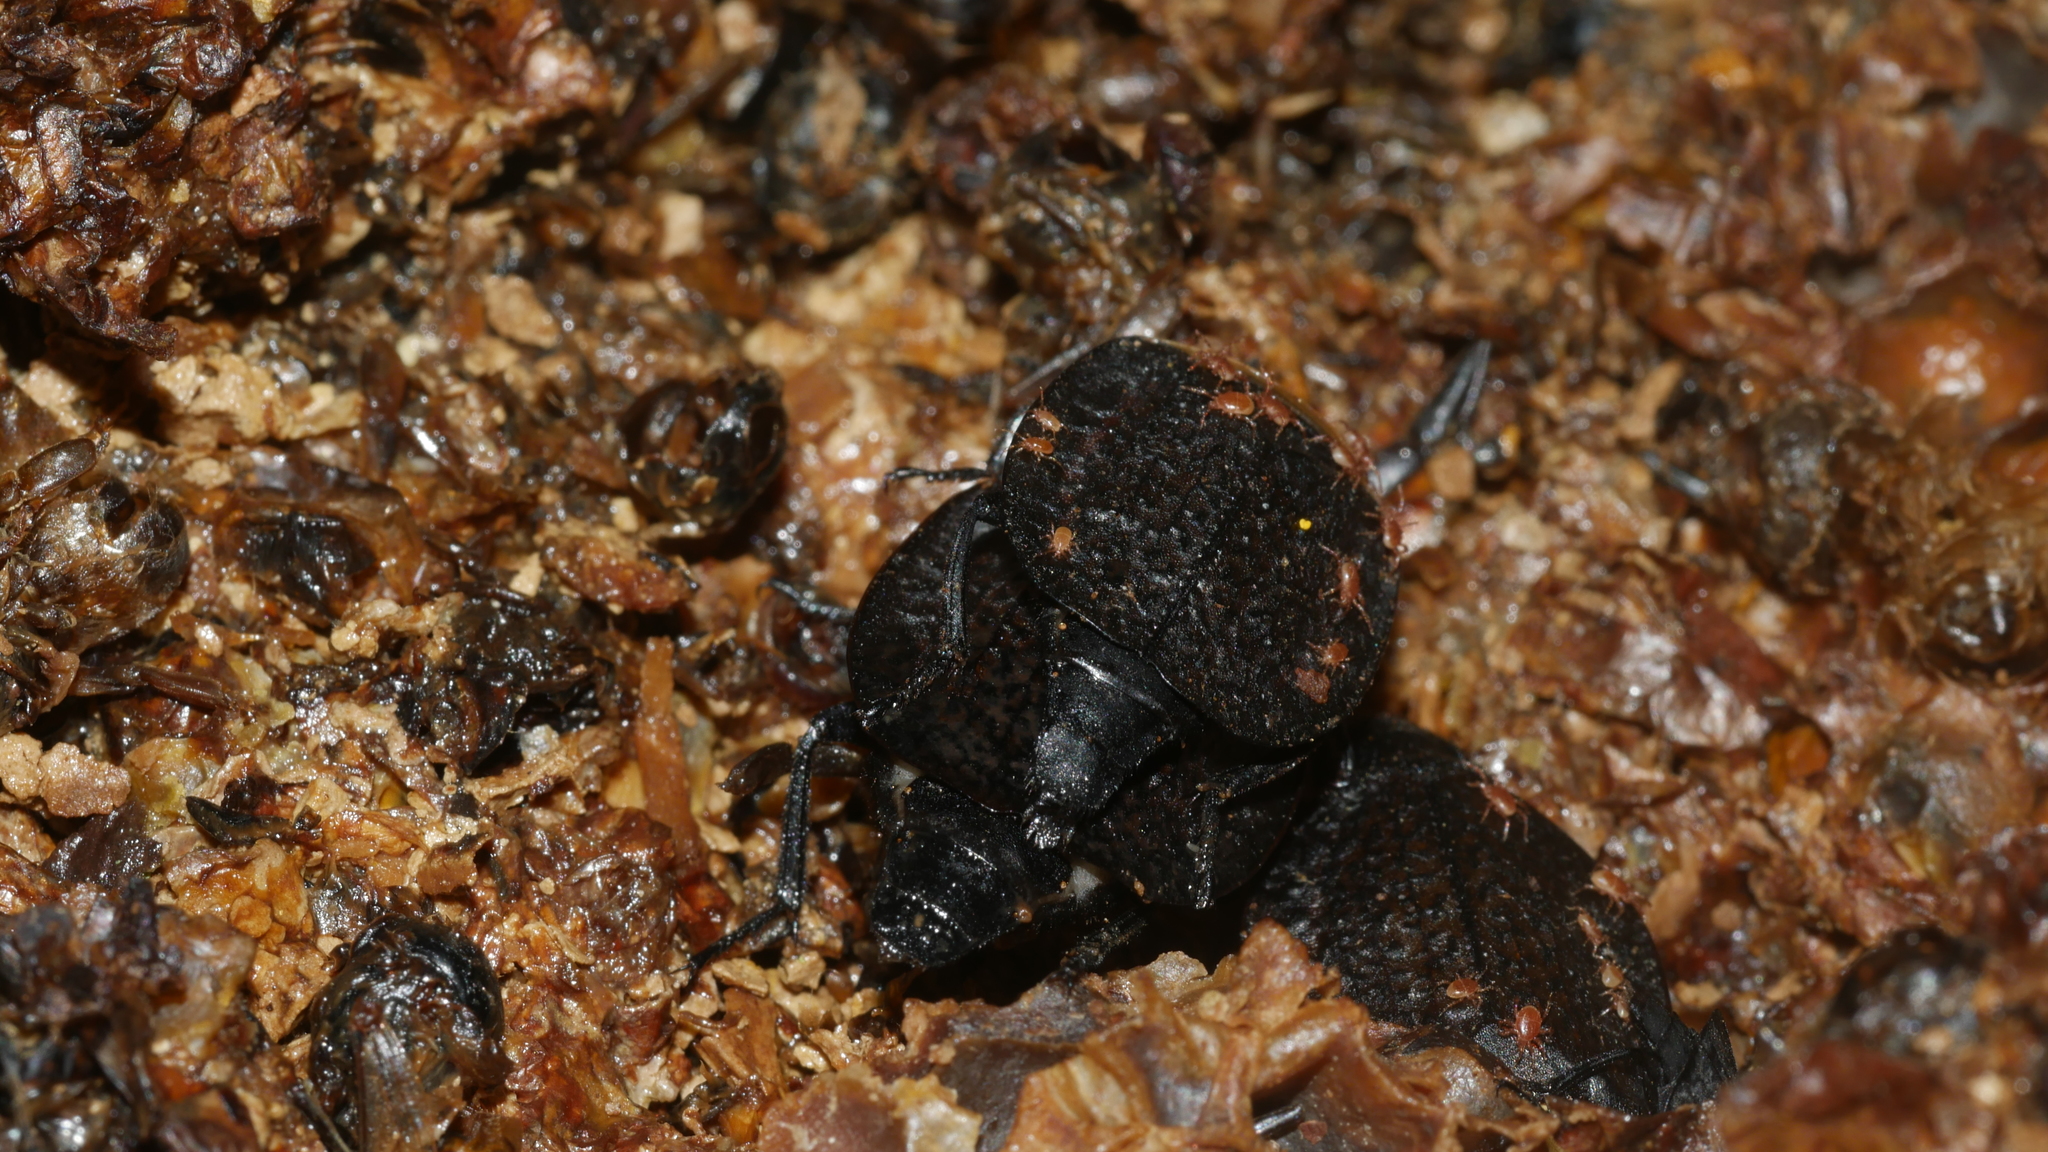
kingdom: Animalia
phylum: Arthropoda
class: Insecta
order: Coleoptera
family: Staphylinidae
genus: Necrophila
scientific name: Necrophila americana
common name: American carrion beetle
